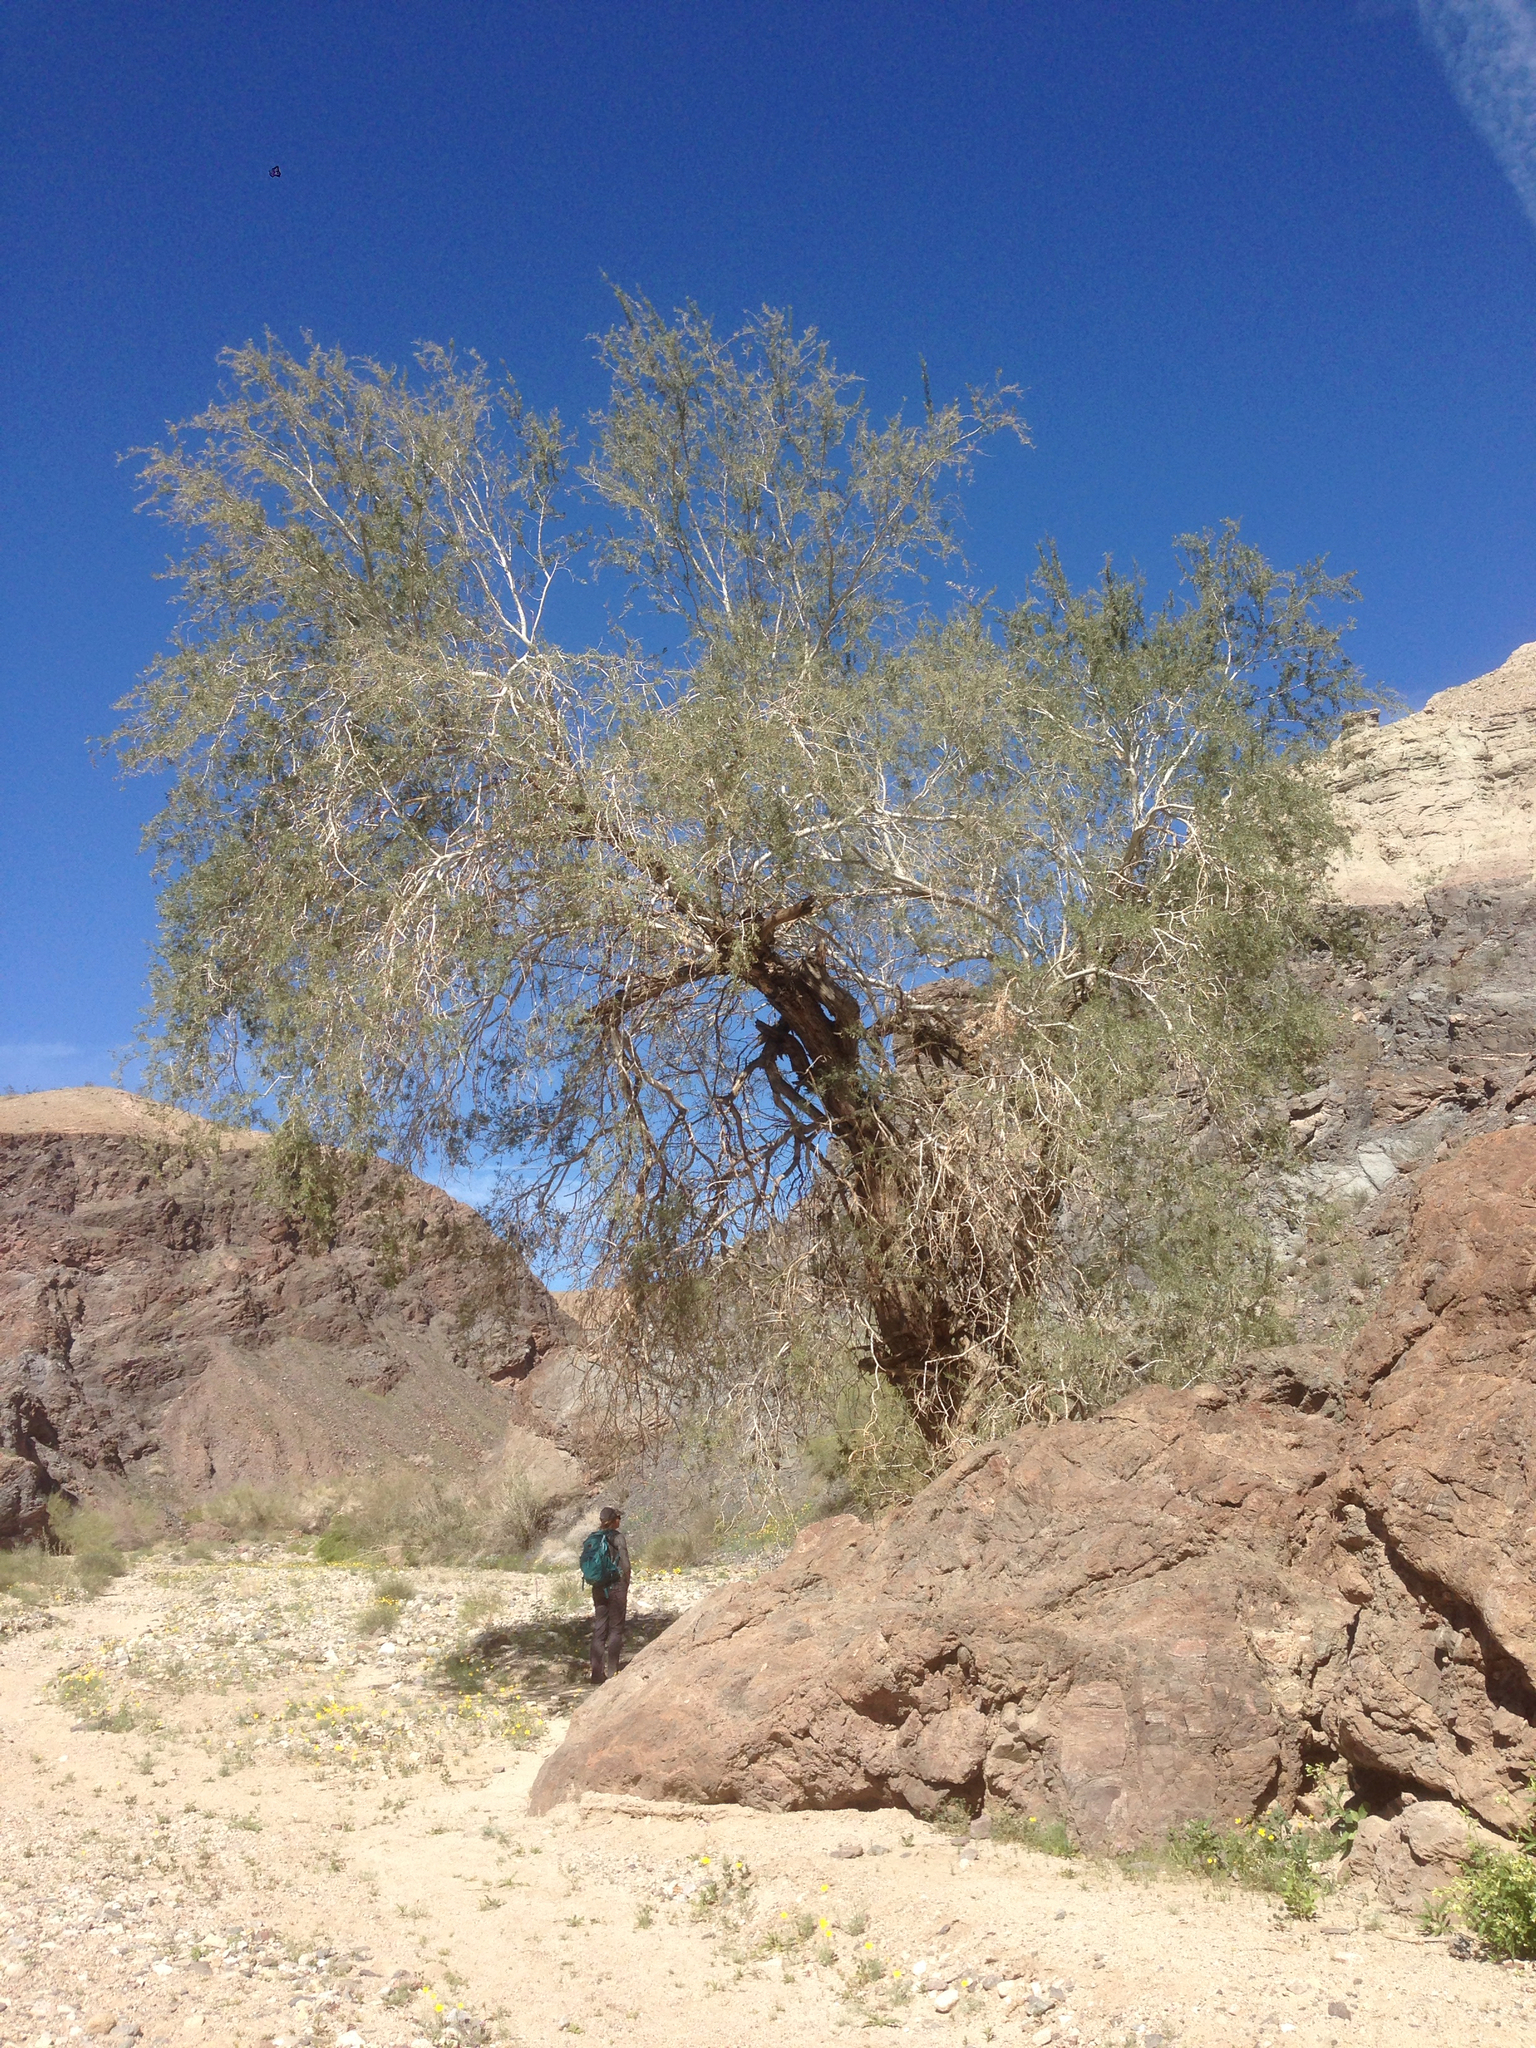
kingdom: Plantae
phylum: Tracheophyta
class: Magnoliopsida
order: Fabales
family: Fabaceae
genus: Olneya
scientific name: Olneya tesota
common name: Desert ironwood
